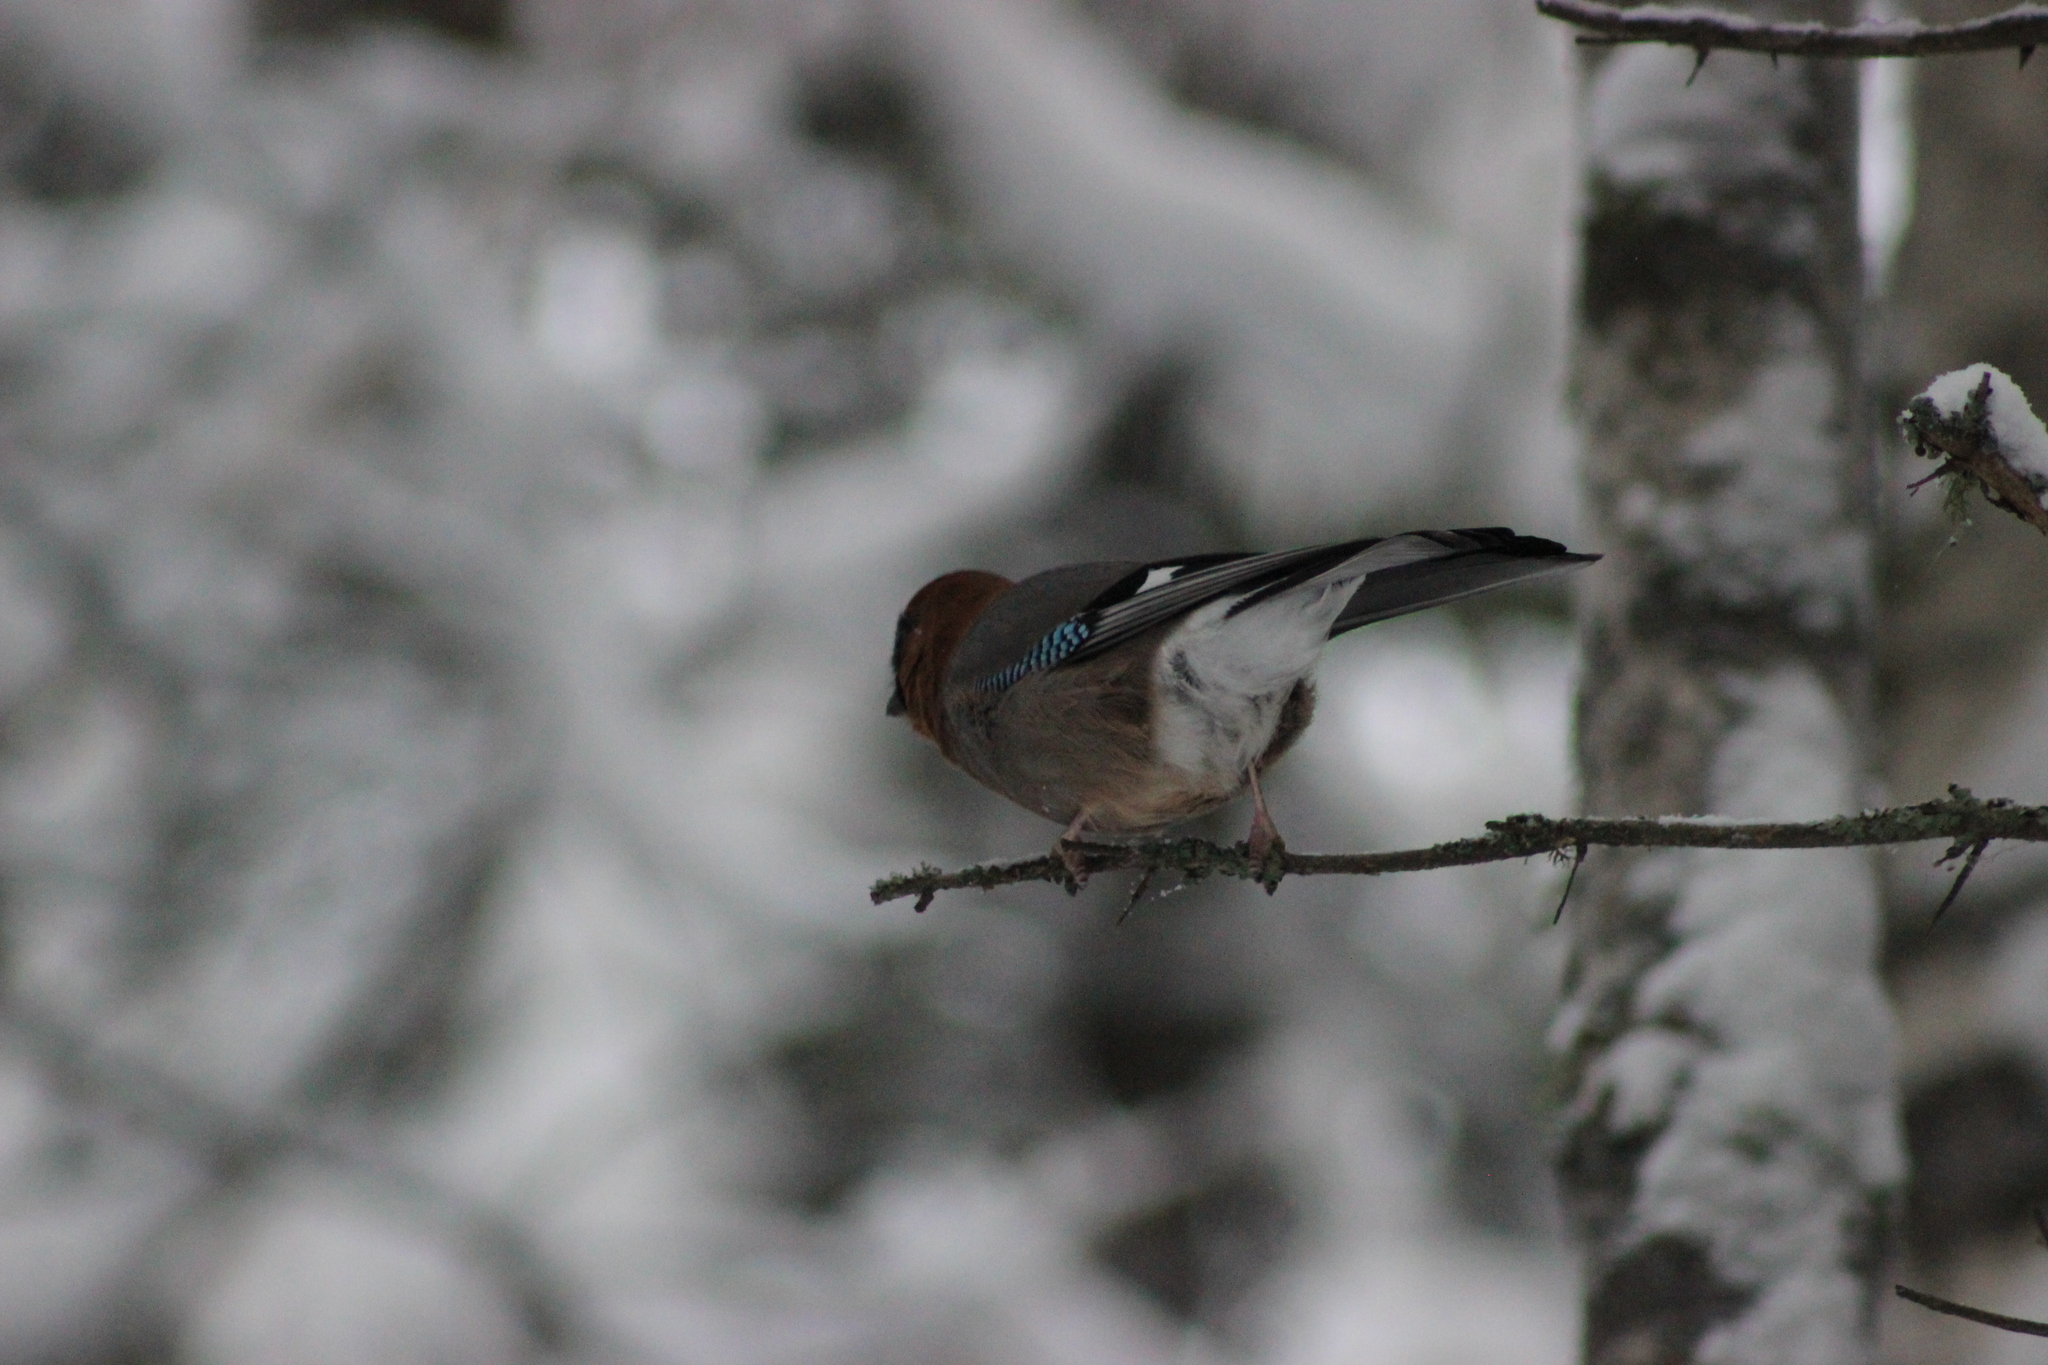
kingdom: Animalia
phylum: Chordata
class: Aves
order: Passeriformes
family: Corvidae
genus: Garrulus
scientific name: Garrulus glandarius
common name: Eurasian jay
